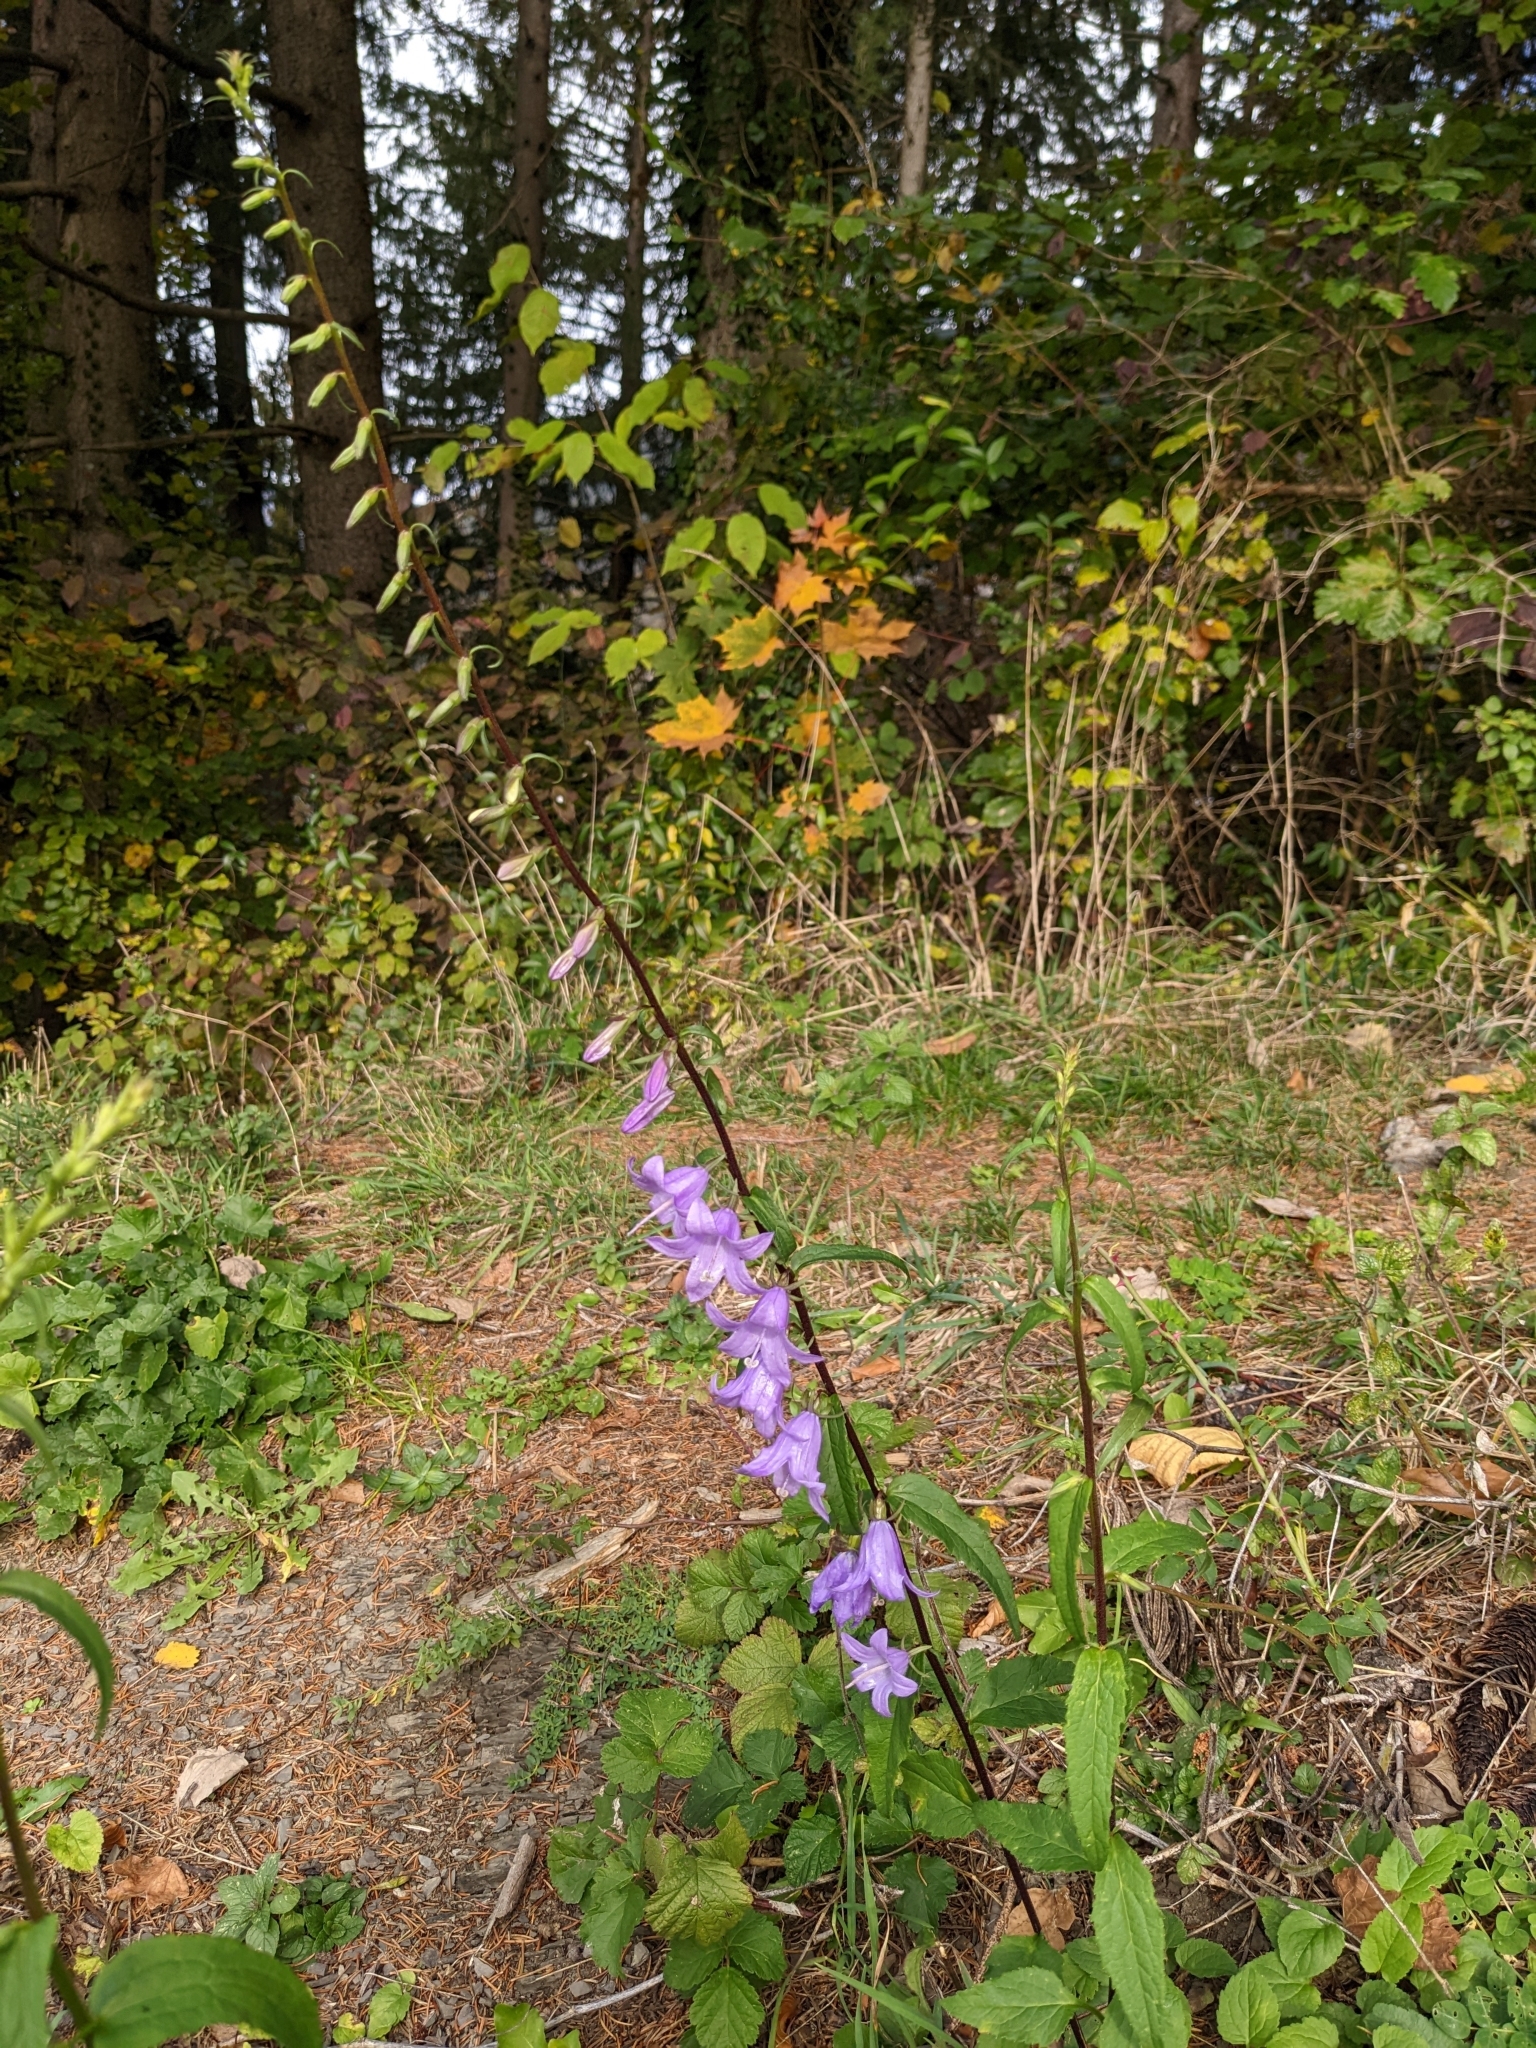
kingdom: Plantae
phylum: Tracheophyta
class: Magnoliopsida
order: Asterales
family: Campanulaceae
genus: Campanula
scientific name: Campanula rapunculoides
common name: Creeping bellflower
